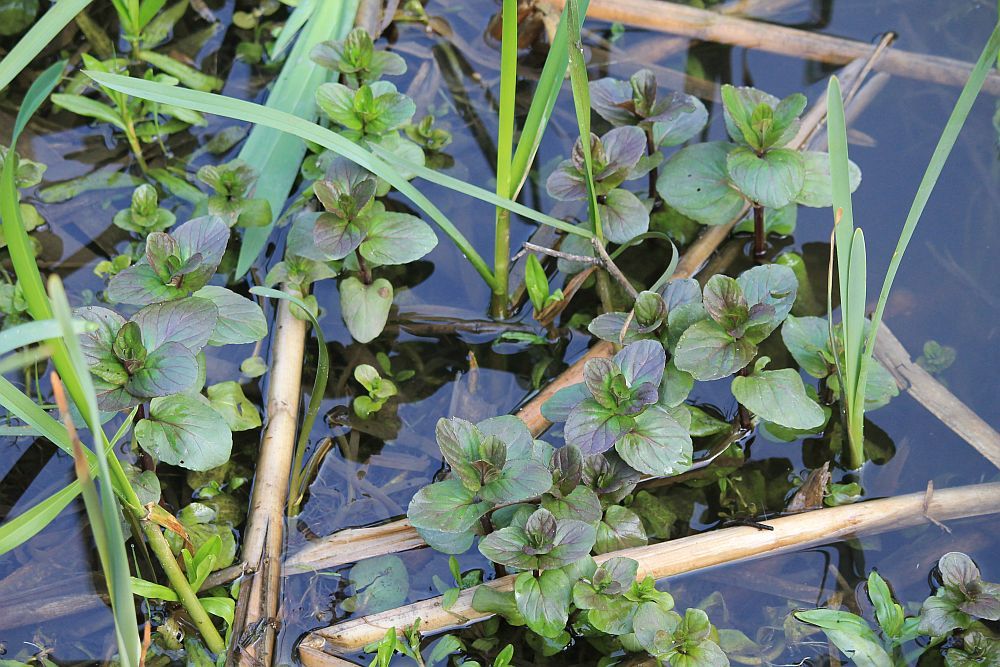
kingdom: Plantae
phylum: Tracheophyta
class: Magnoliopsida
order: Lamiales
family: Lamiaceae
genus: Mentha
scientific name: Mentha aquatica
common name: Water mint
